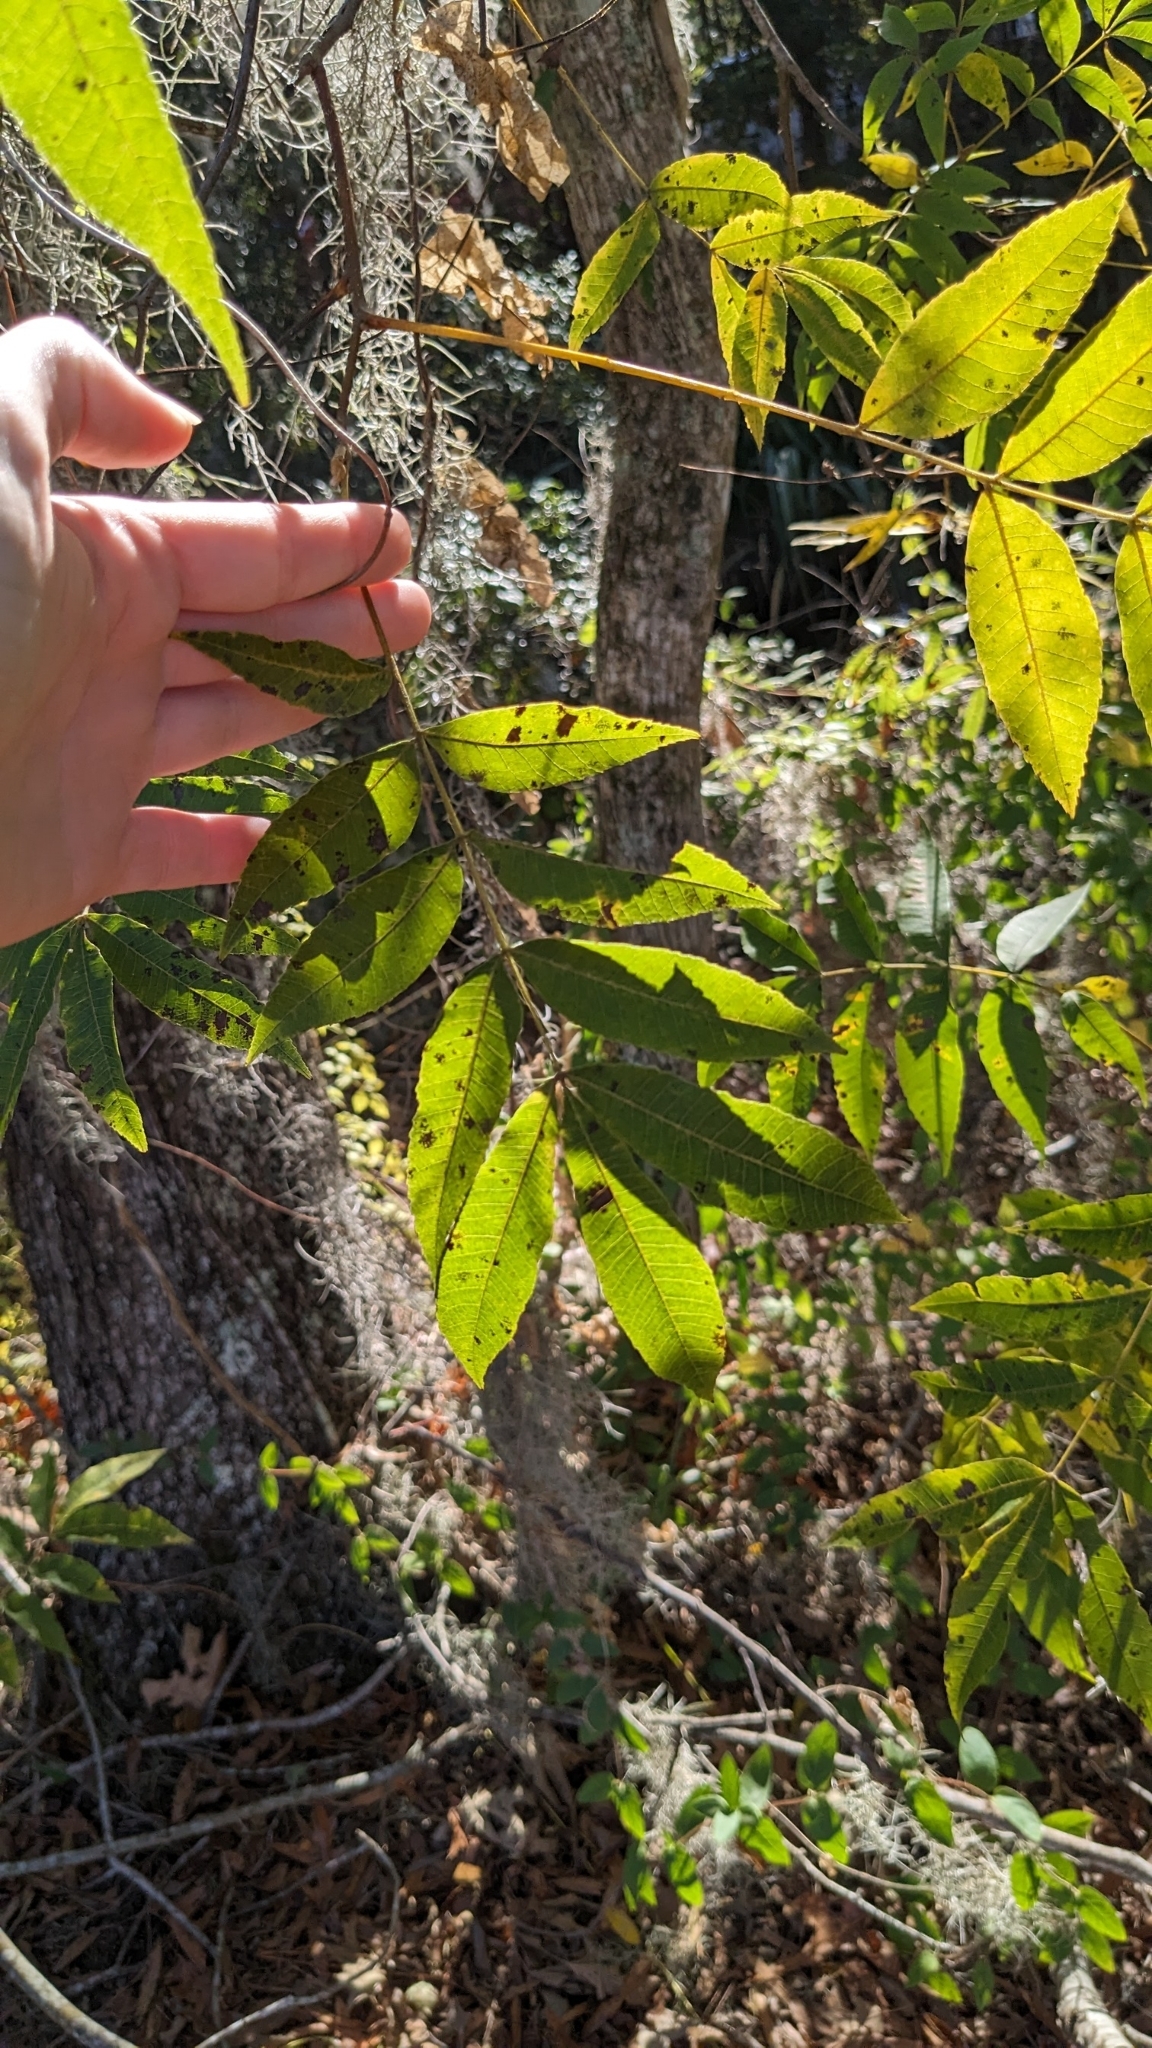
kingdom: Plantae
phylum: Tracheophyta
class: Magnoliopsida
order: Fagales
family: Juglandaceae
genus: Carya
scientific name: Carya illinoinensis
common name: Pecan
